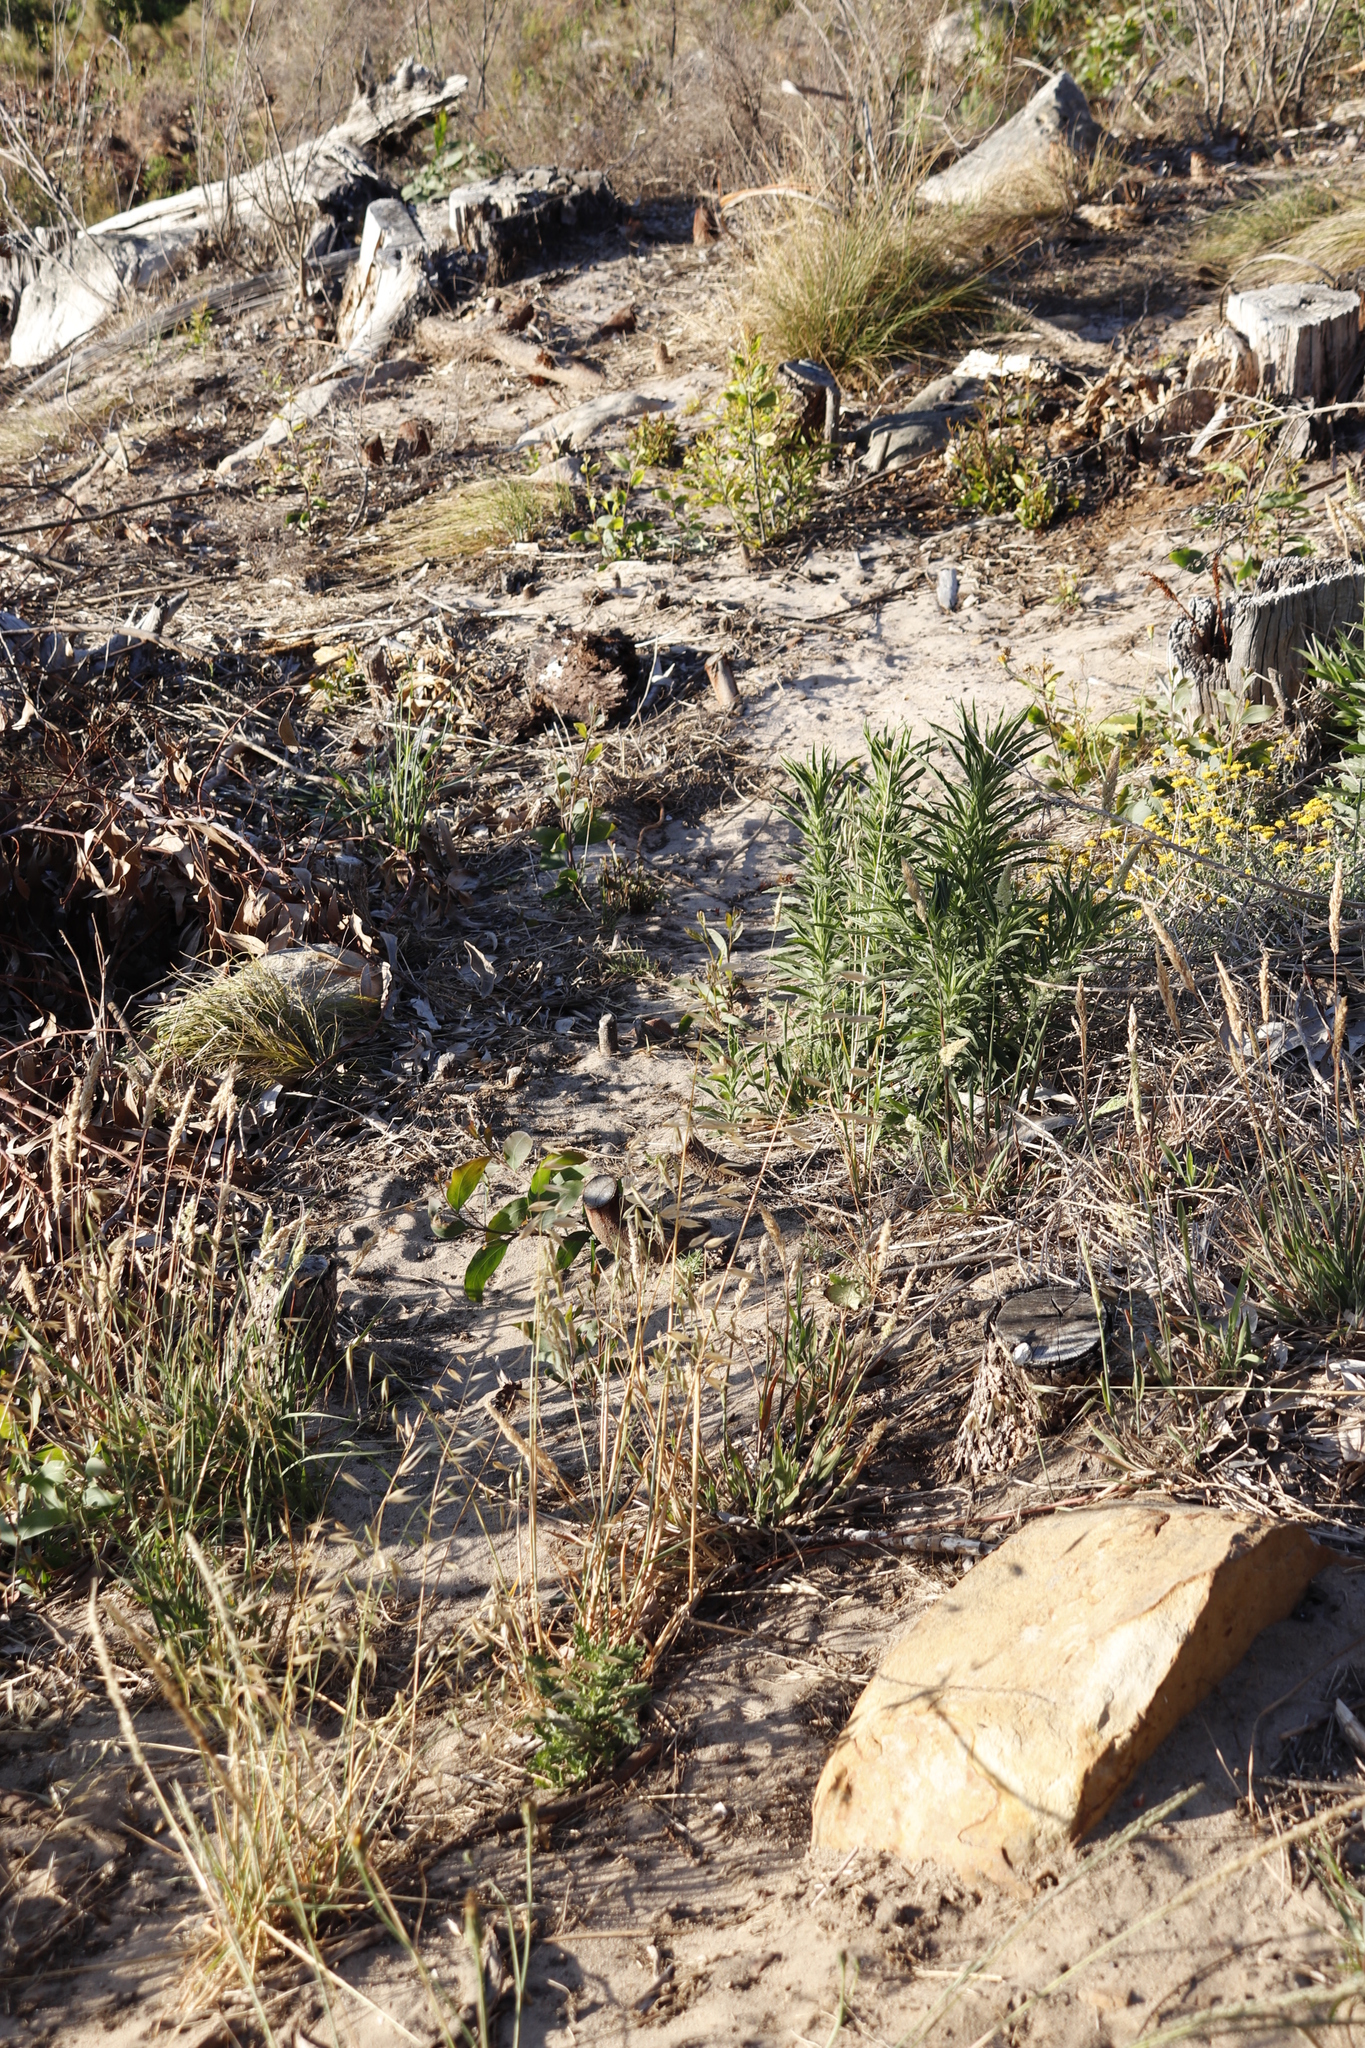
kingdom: Plantae
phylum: Tracheophyta
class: Magnoliopsida
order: Fabales
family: Fabaceae
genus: Acacia
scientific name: Acacia falciformis
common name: Tanning wattle
